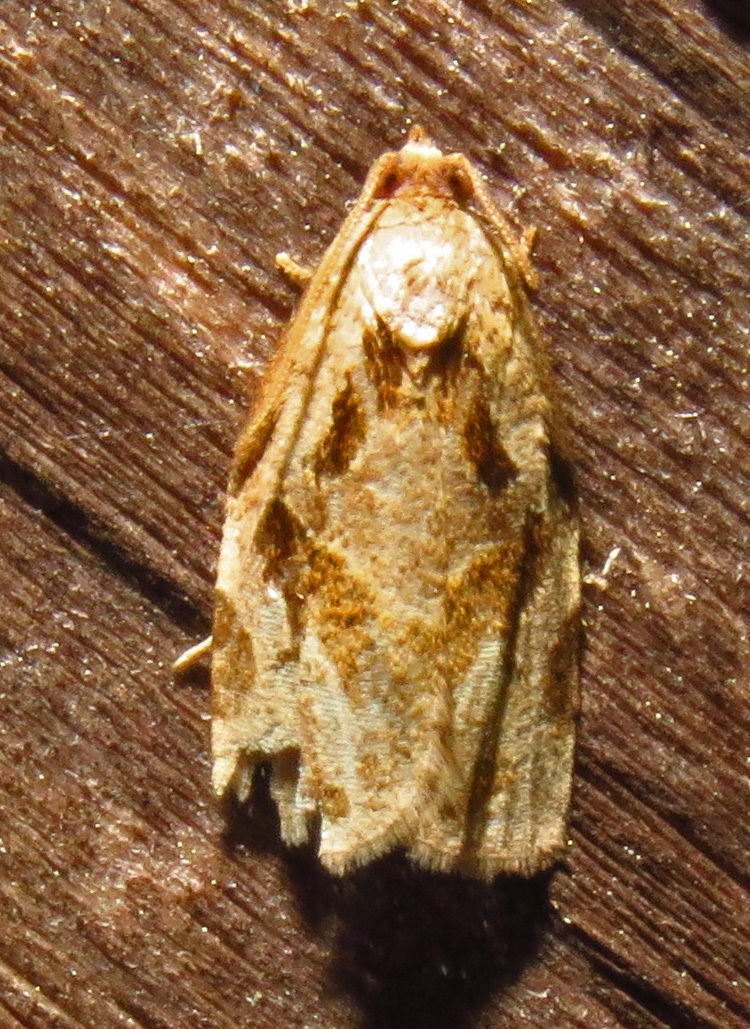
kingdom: Animalia
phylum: Arthropoda
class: Insecta
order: Lepidoptera
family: Tortricidae
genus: Archips
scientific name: Archips grisea
